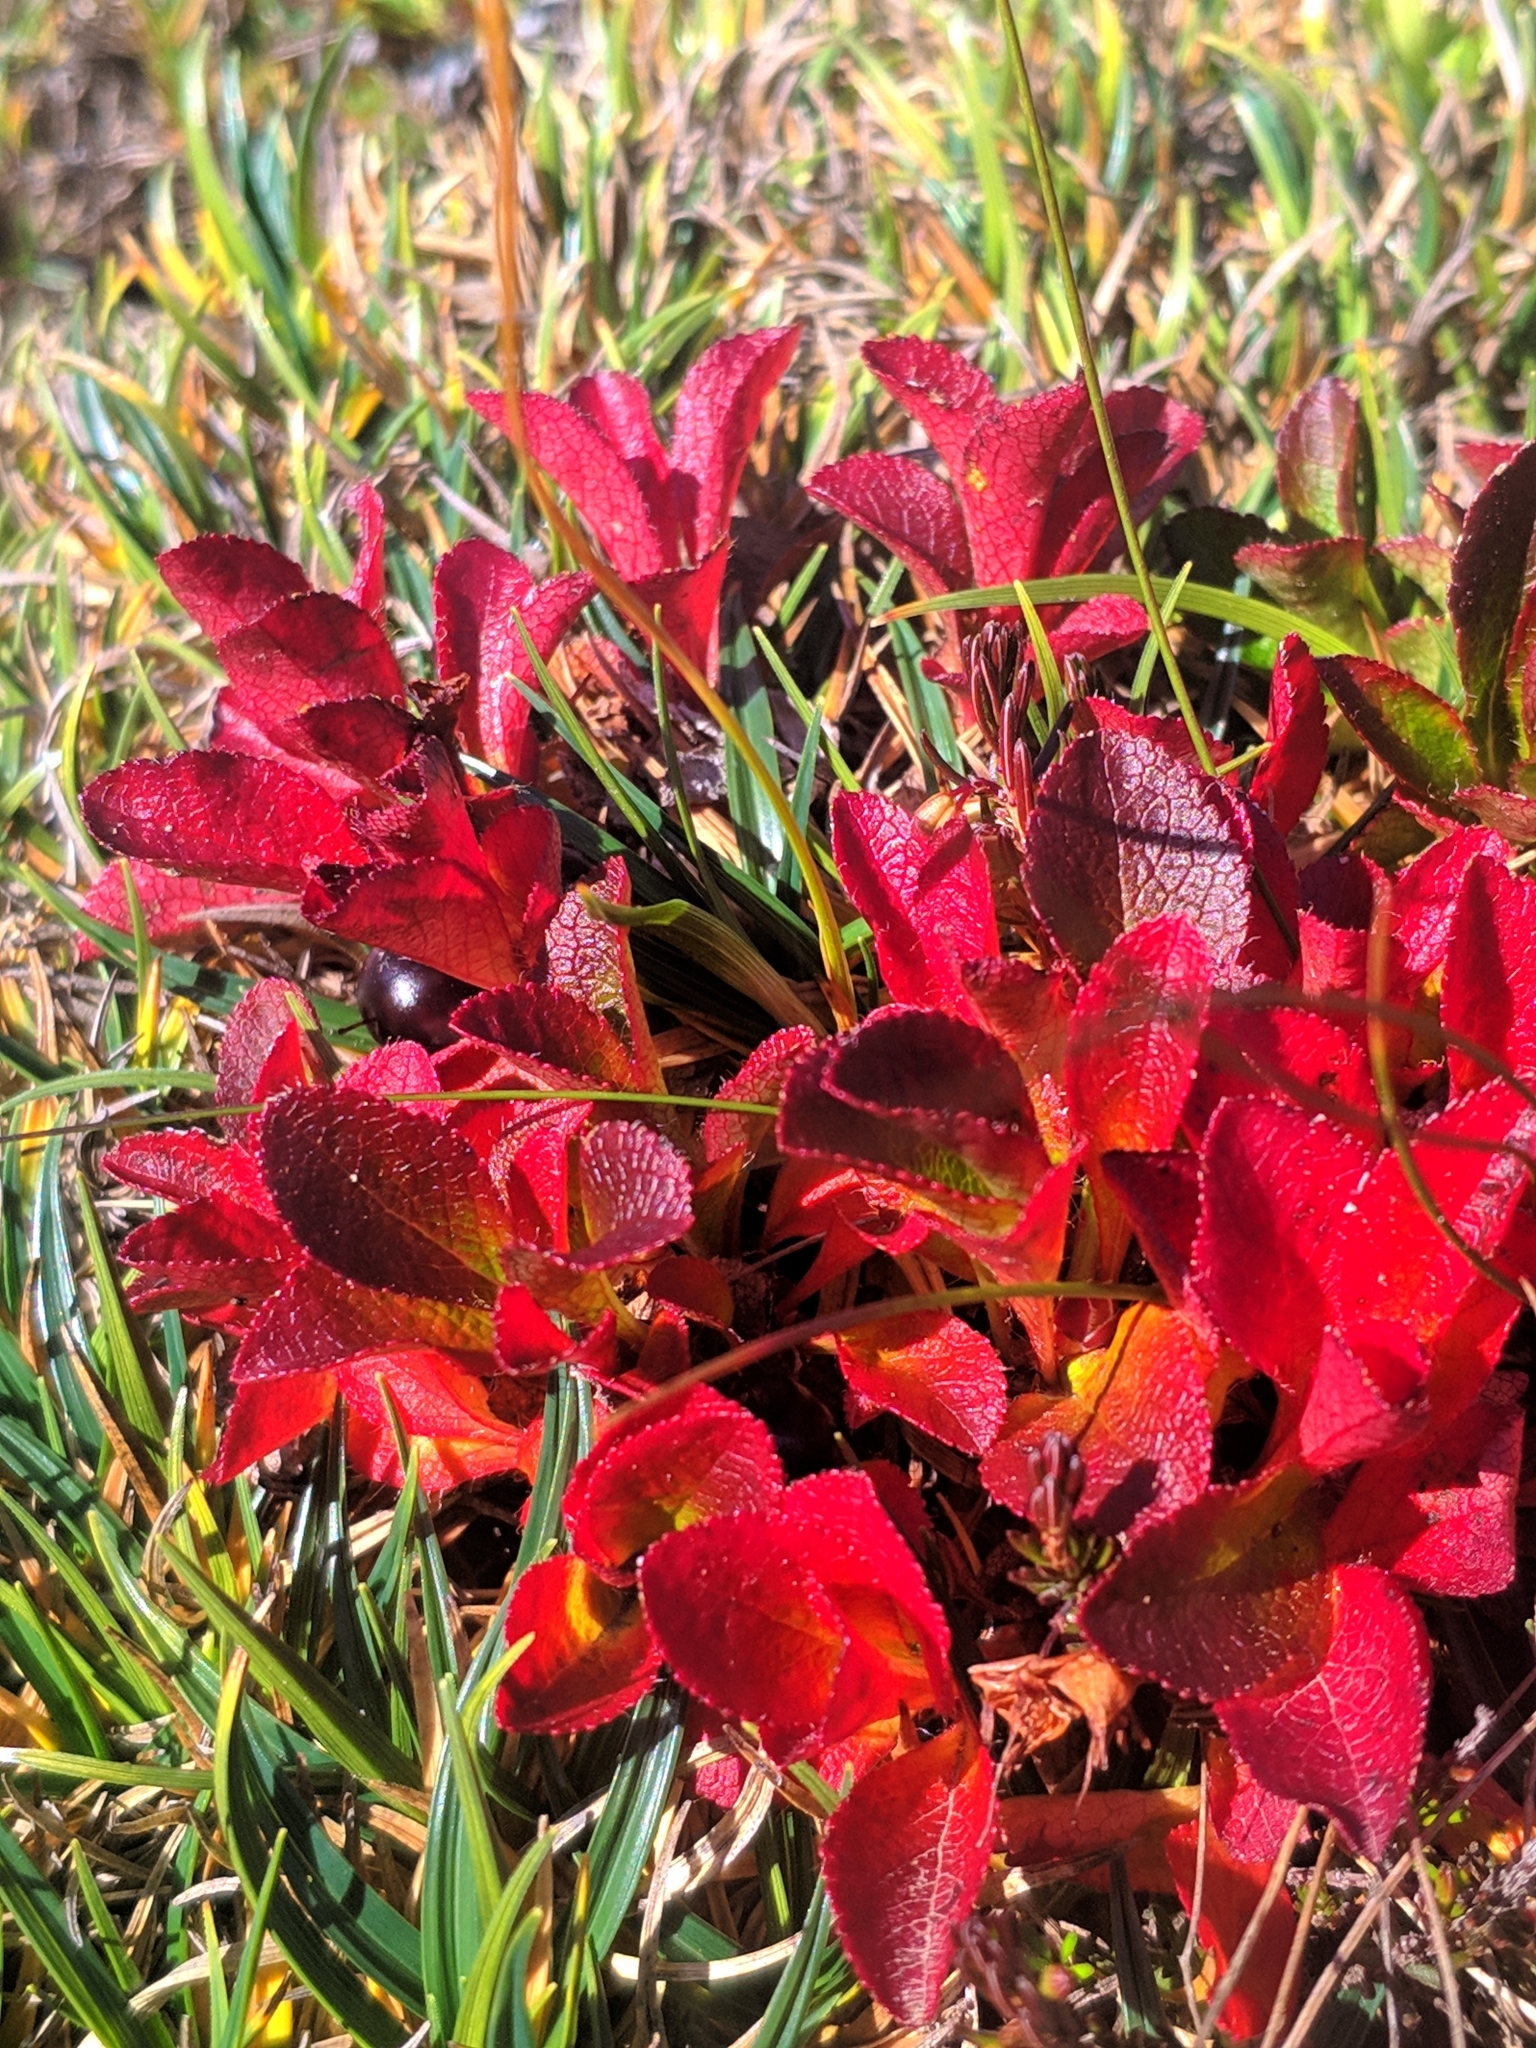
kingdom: Plantae
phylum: Tracheophyta
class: Magnoliopsida
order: Ericales
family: Ericaceae
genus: Arctostaphylos
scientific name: Arctostaphylos alpinus
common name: Alpine bearberry
